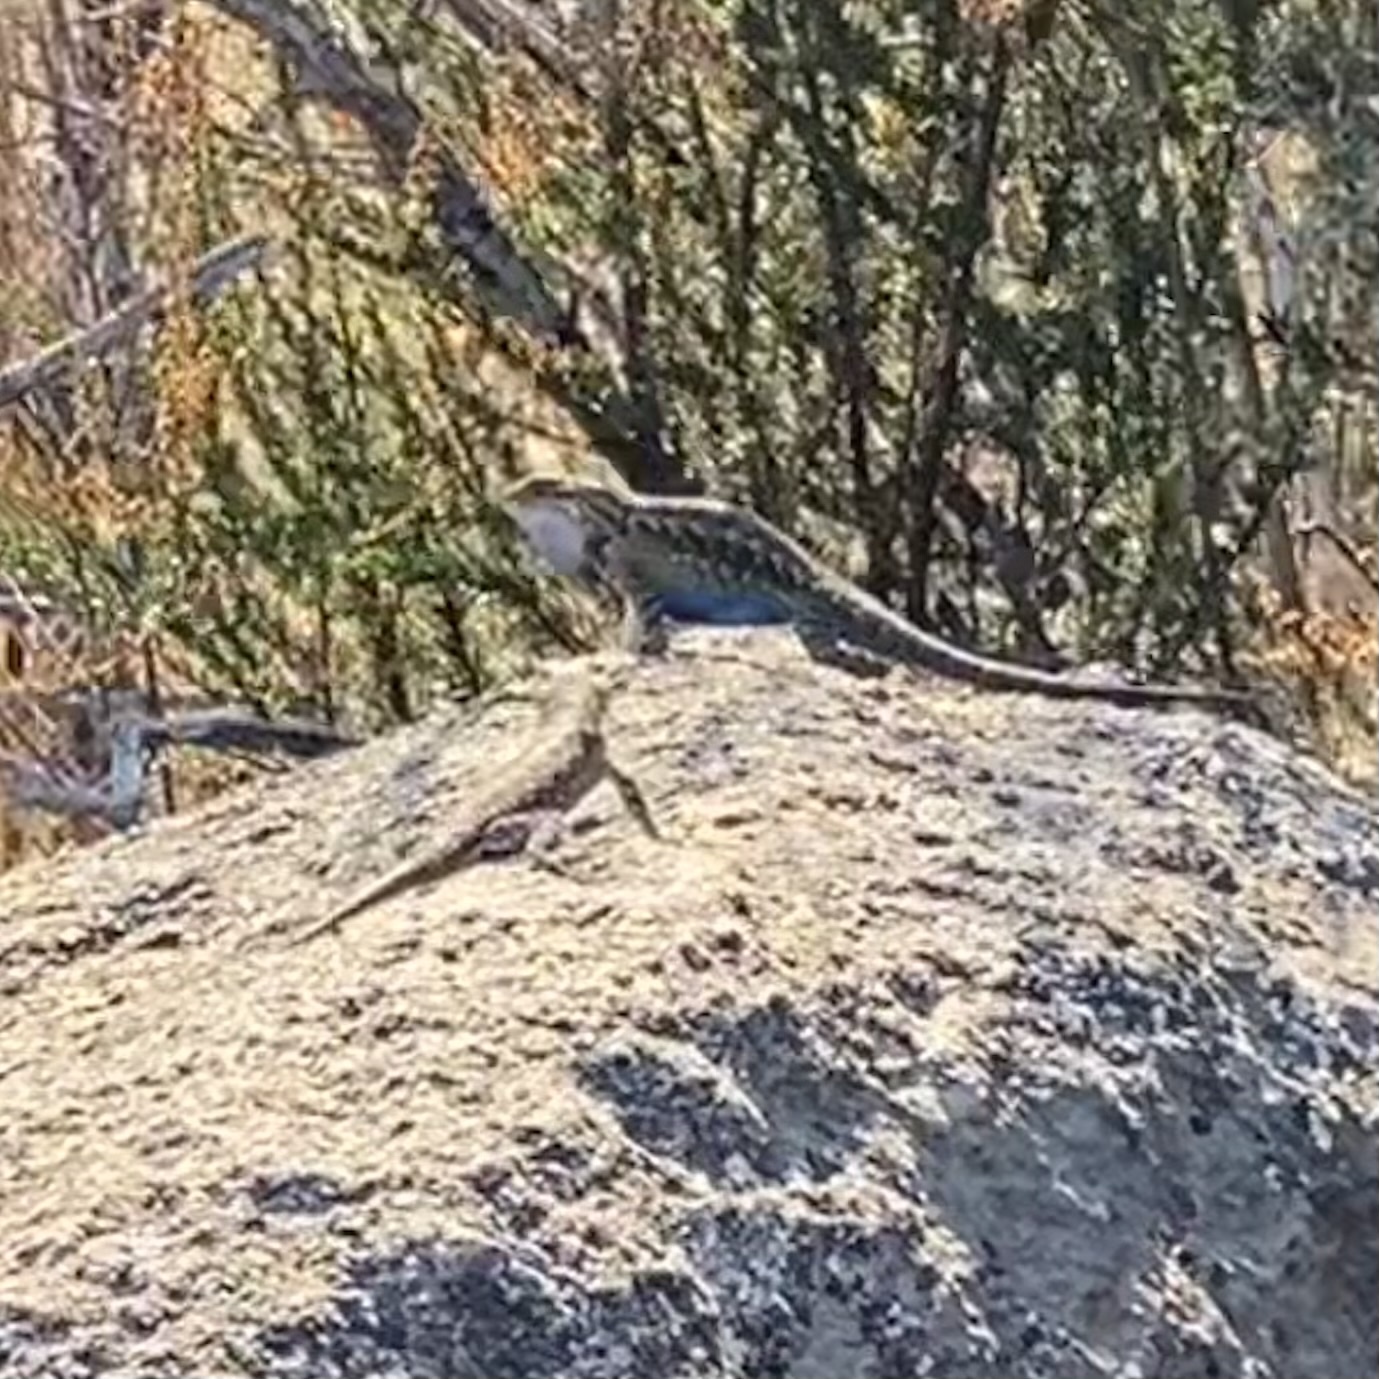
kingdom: Animalia
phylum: Chordata
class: Squamata
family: Phrynosomatidae
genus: Sceloporus
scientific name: Sceloporus occidentalis
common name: Western fence lizard
